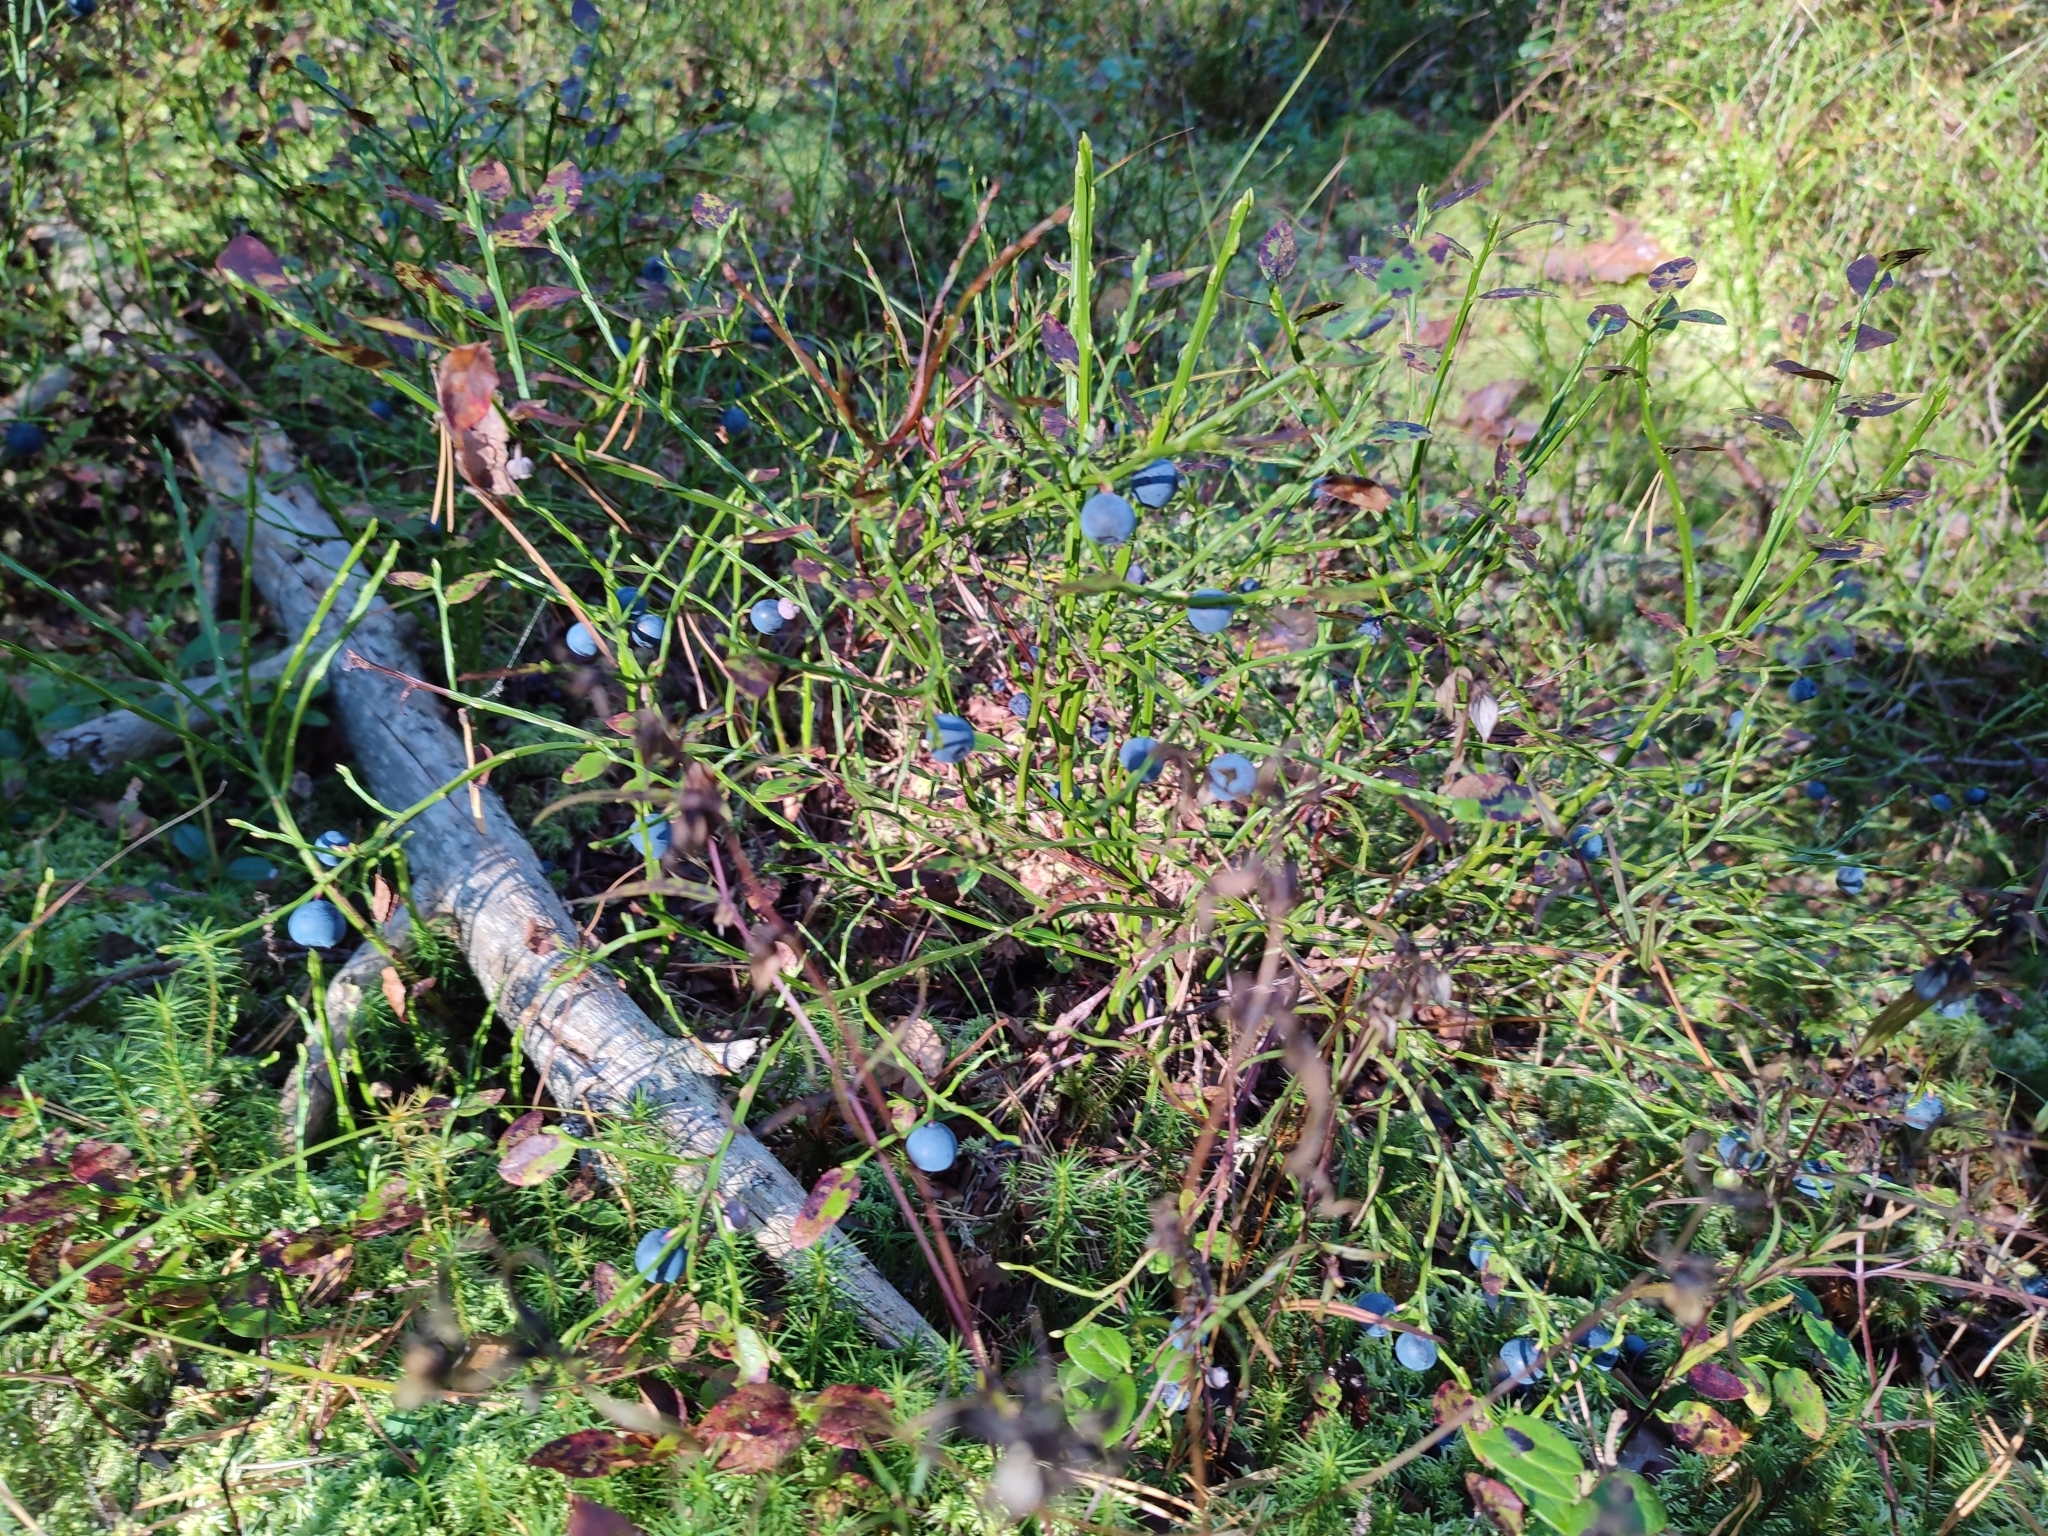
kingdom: Plantae
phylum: Tracheophyta
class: Magnoliopsida
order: Ericales
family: Ericaceae
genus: Vaccinium
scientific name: Vaccinium myrtillus
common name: Bilberry
